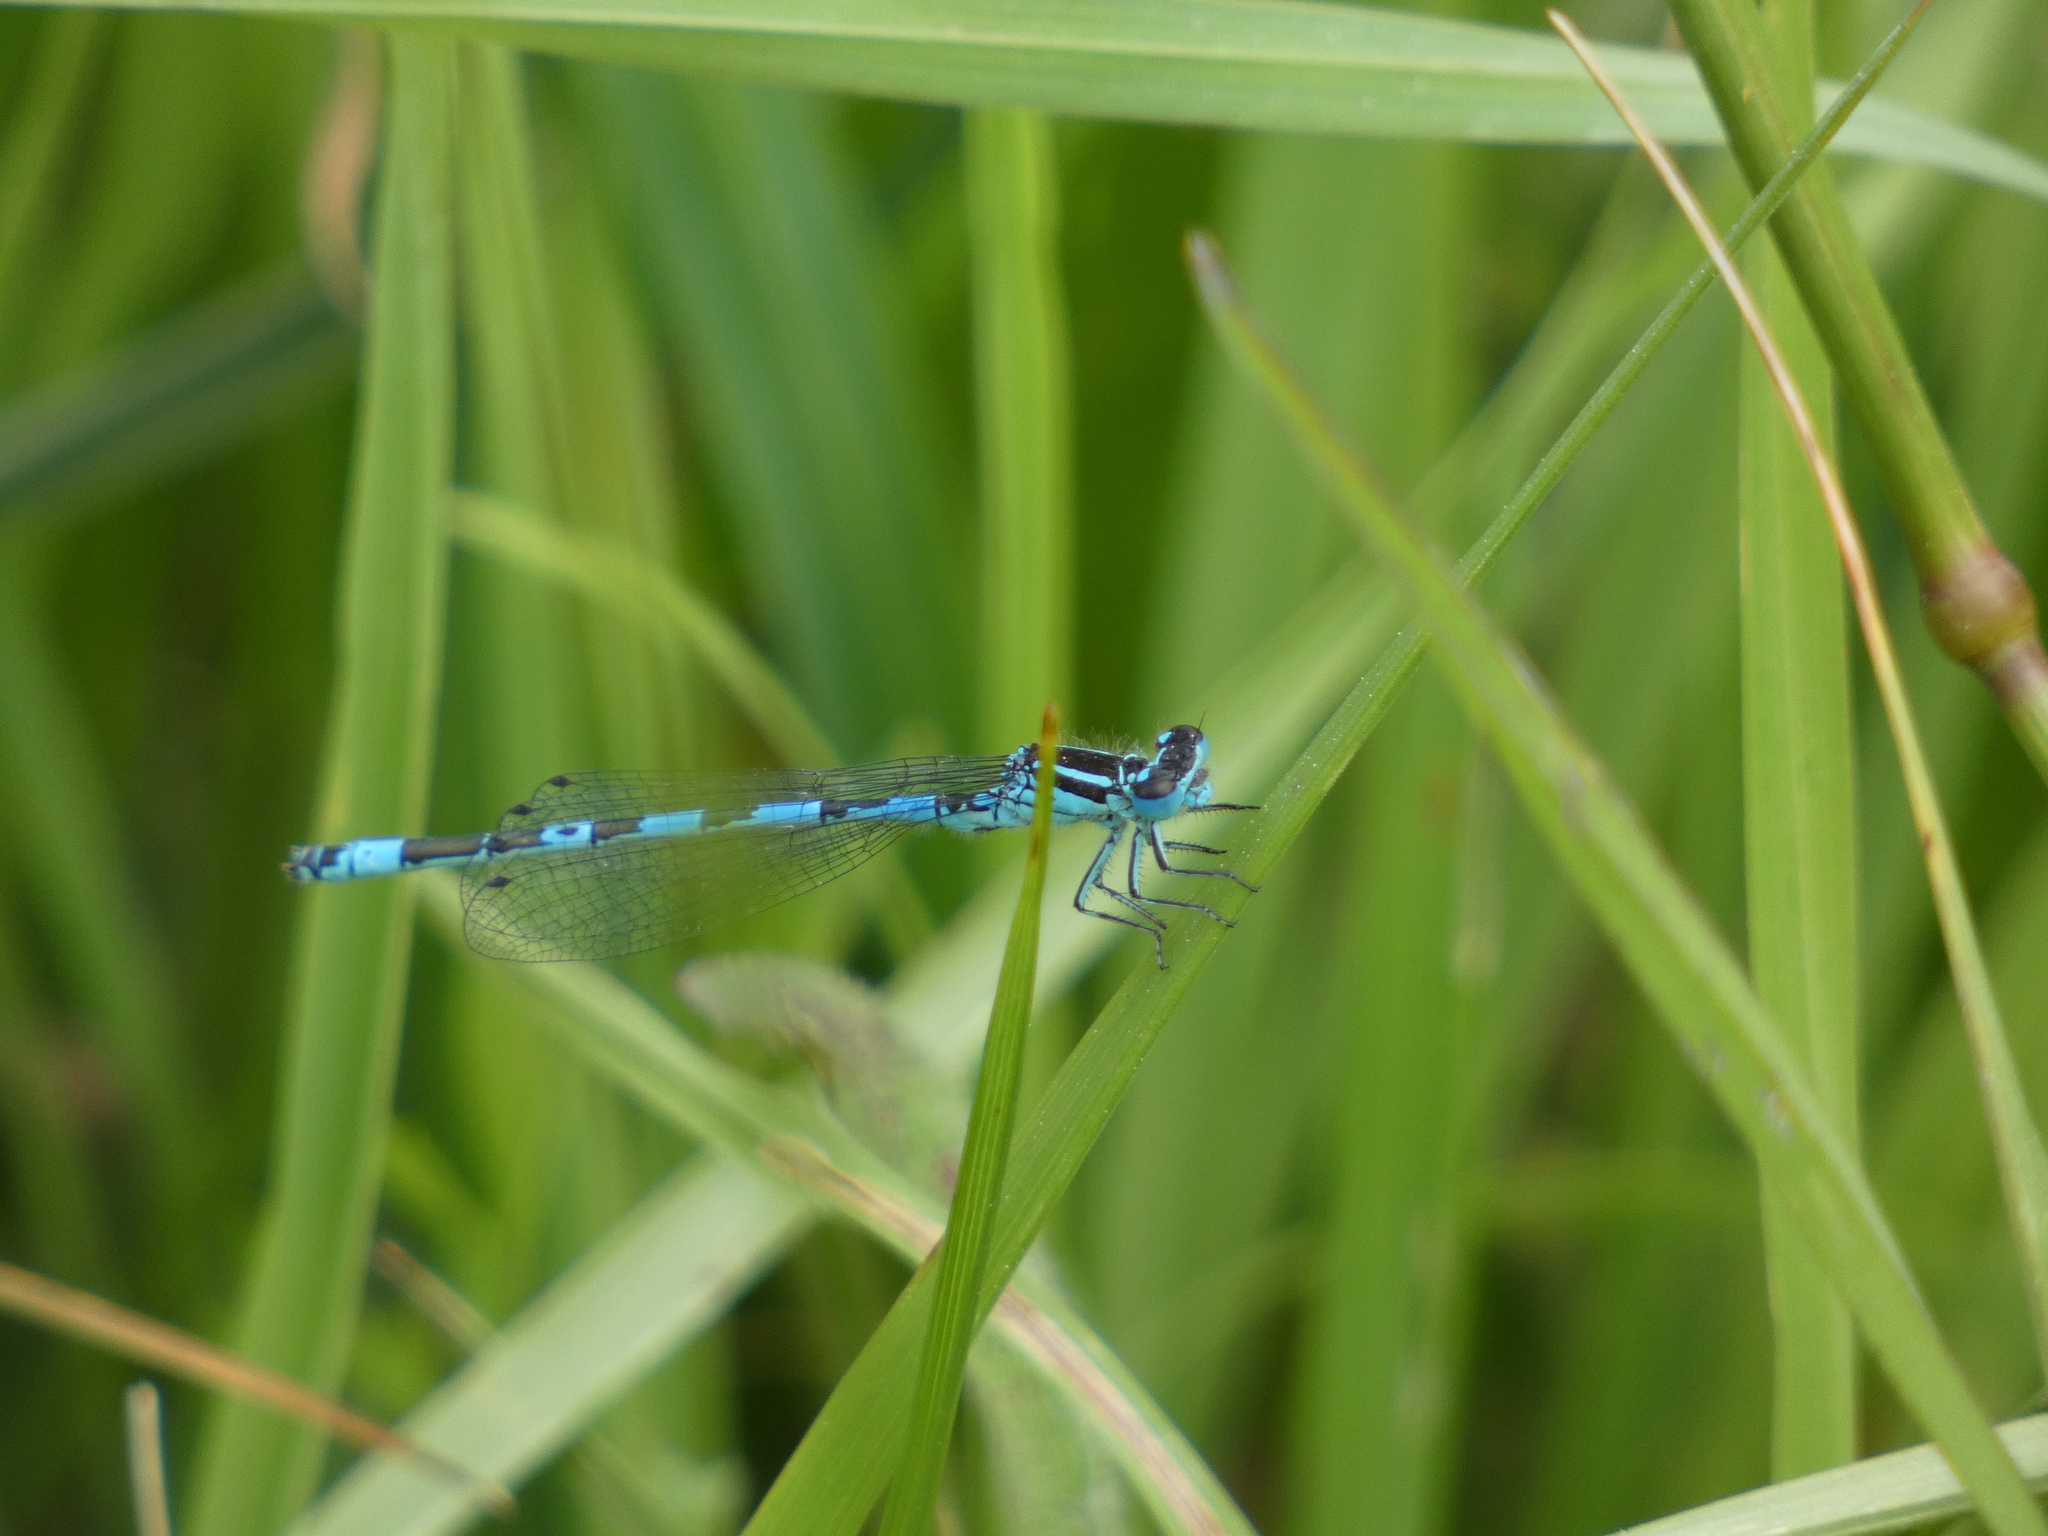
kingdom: Animalia
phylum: Arthropoda
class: Insecta
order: Odonata
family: Coenagrionidae
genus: Coenagrion
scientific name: Coenagrion mercuriale
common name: Southern damselfly
